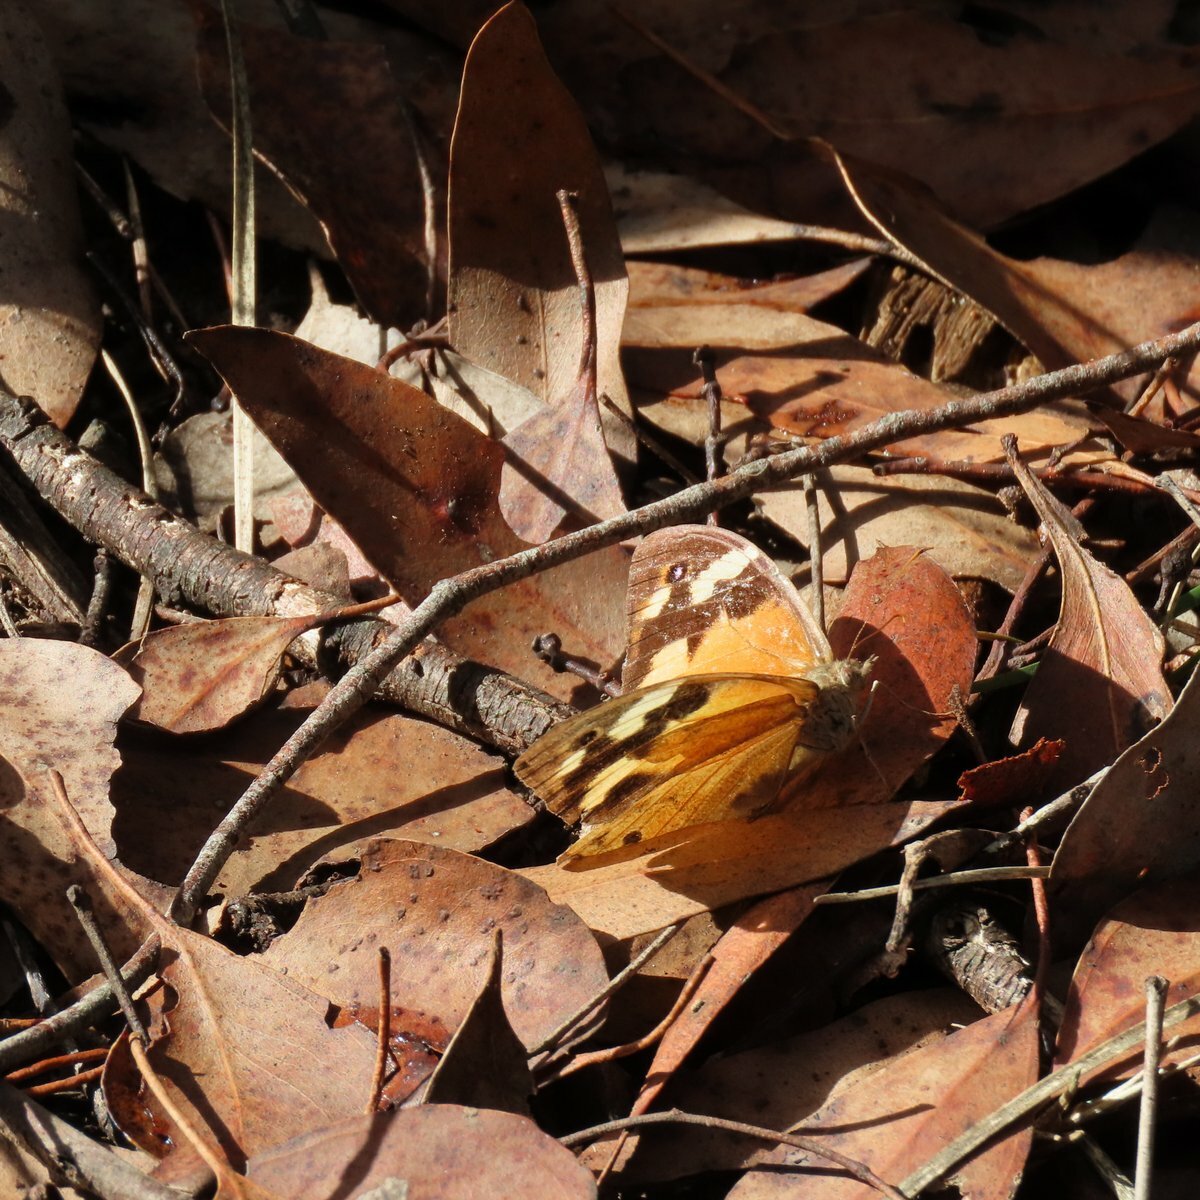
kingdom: Animalia
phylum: Arthropoda
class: Insecta
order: Lepidoptera
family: Nymphalidae
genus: Heteronympha
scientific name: Heteronympha merope
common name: Common brown
